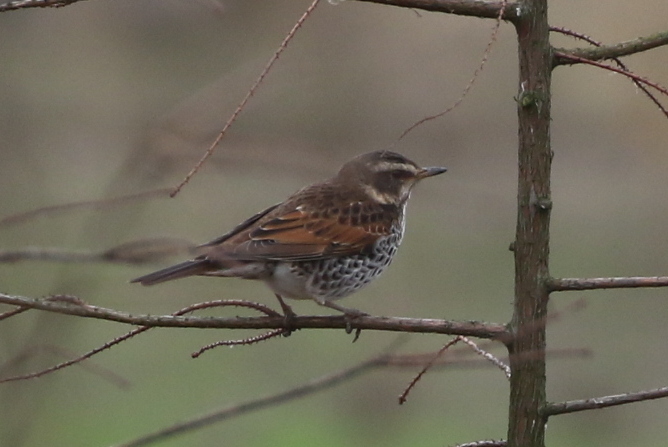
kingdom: Animalia
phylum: Chordata
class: Aves
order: Passeriformes
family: Turdidae
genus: Turdus
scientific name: Turdus eunomus
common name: Dusky thrush
